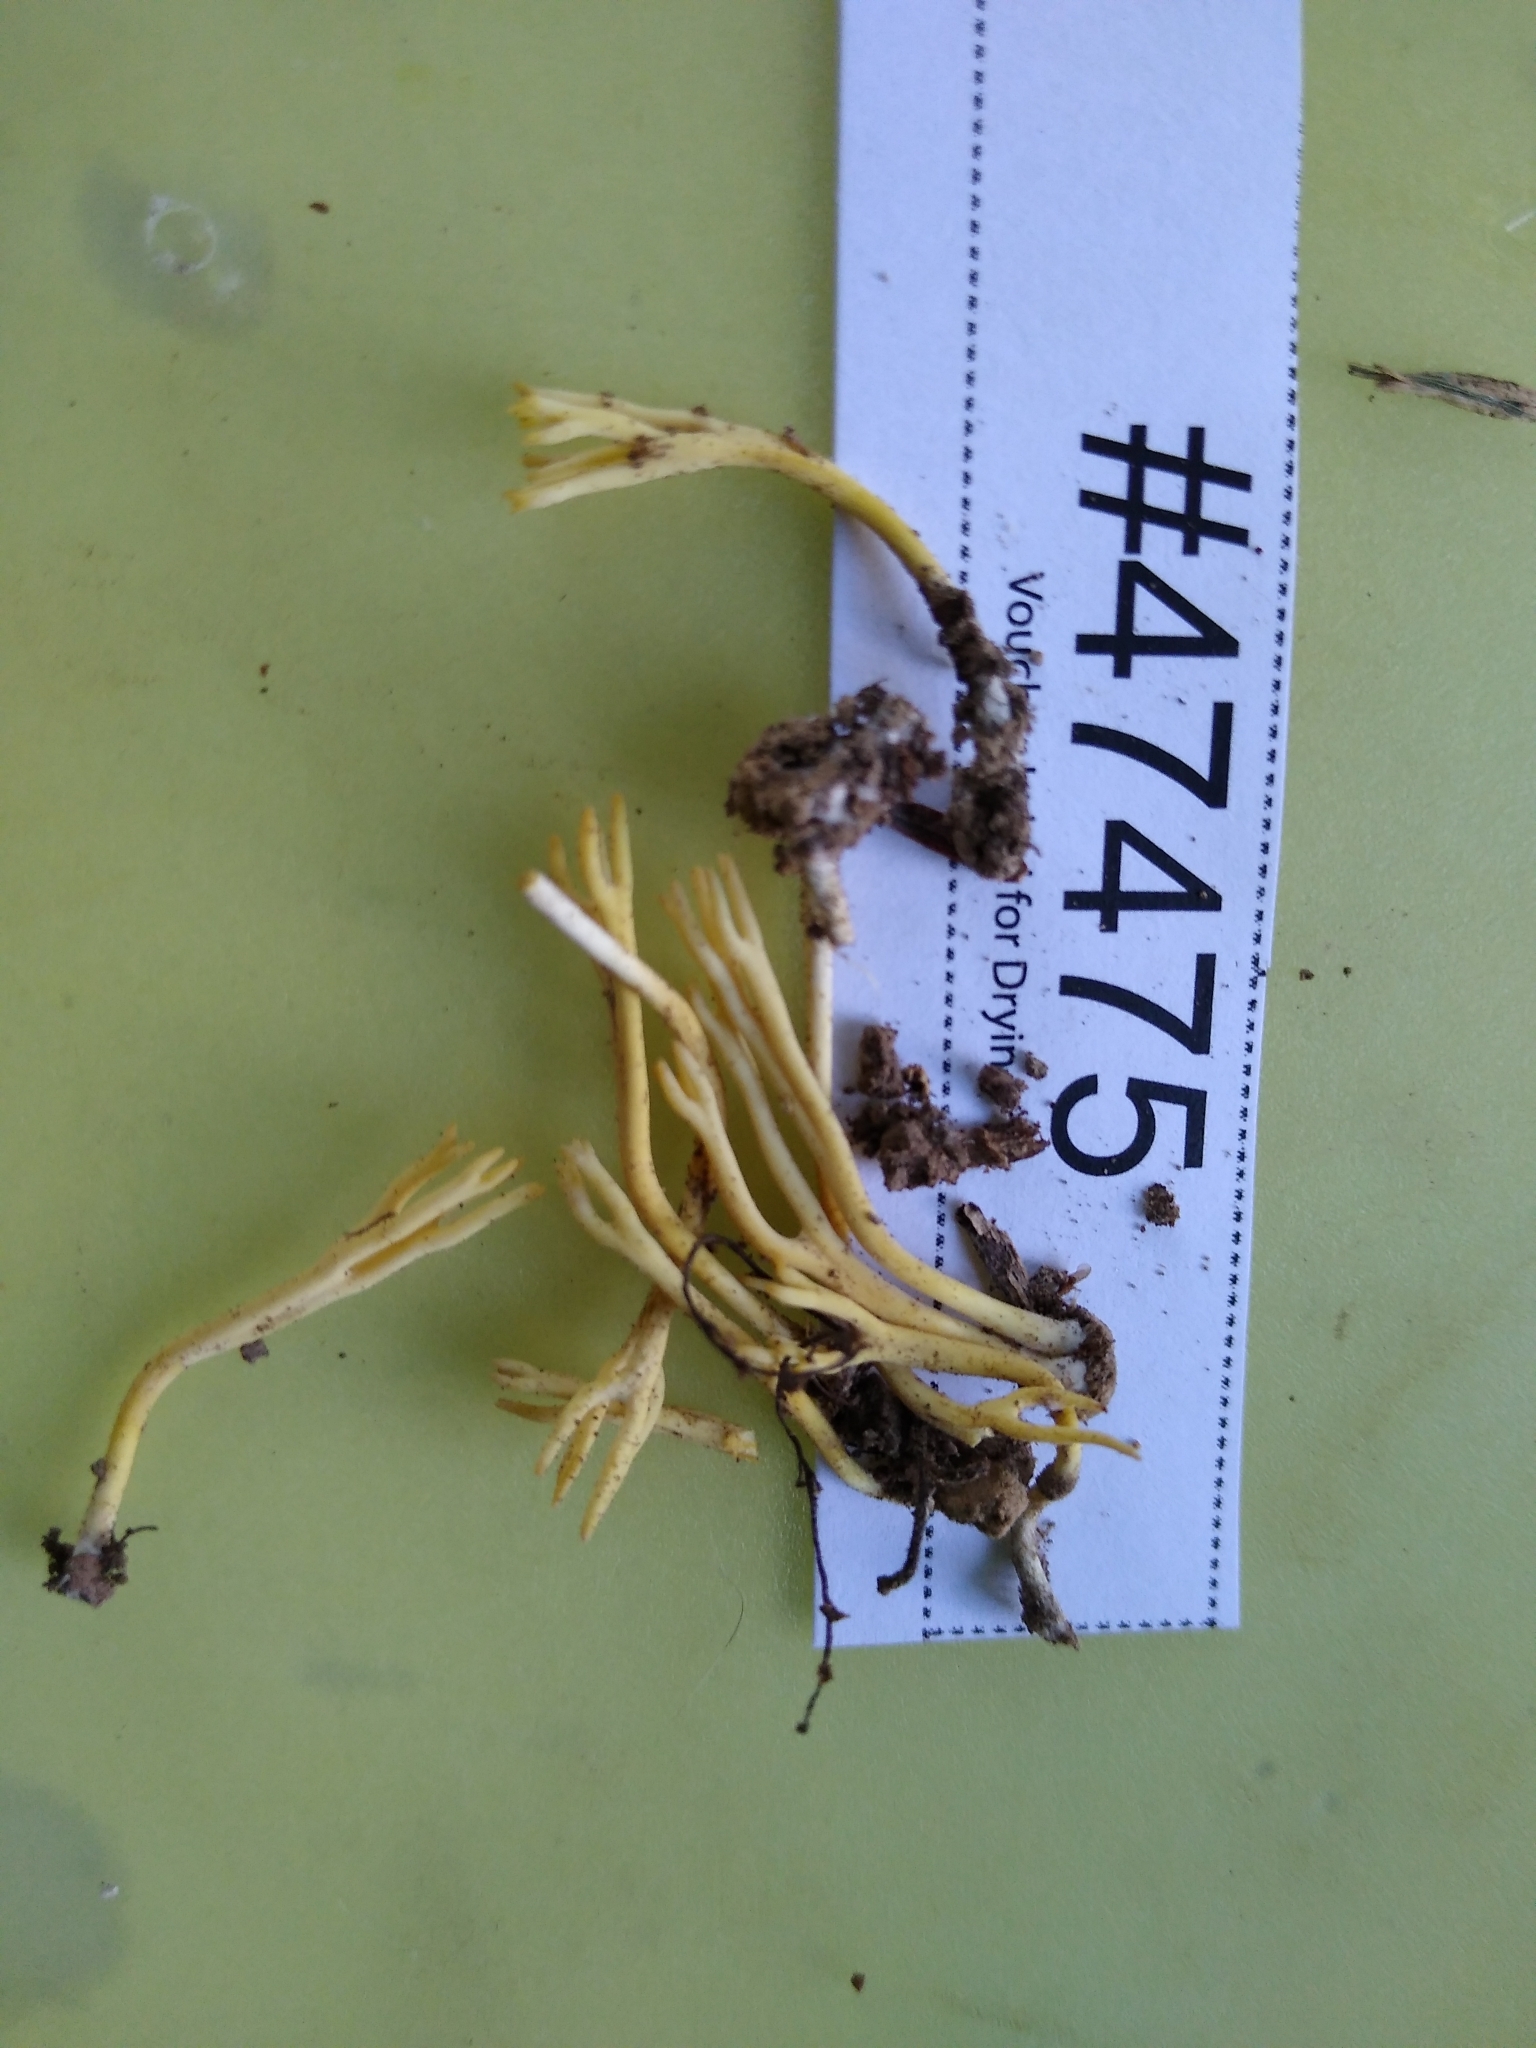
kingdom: Fungi
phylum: Basidiomycota
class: Agaricomycetes
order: Agaricales
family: Clavariaceae
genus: Clavulinopsis
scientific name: Clavulinopsis corniculata
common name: Meadow coral
